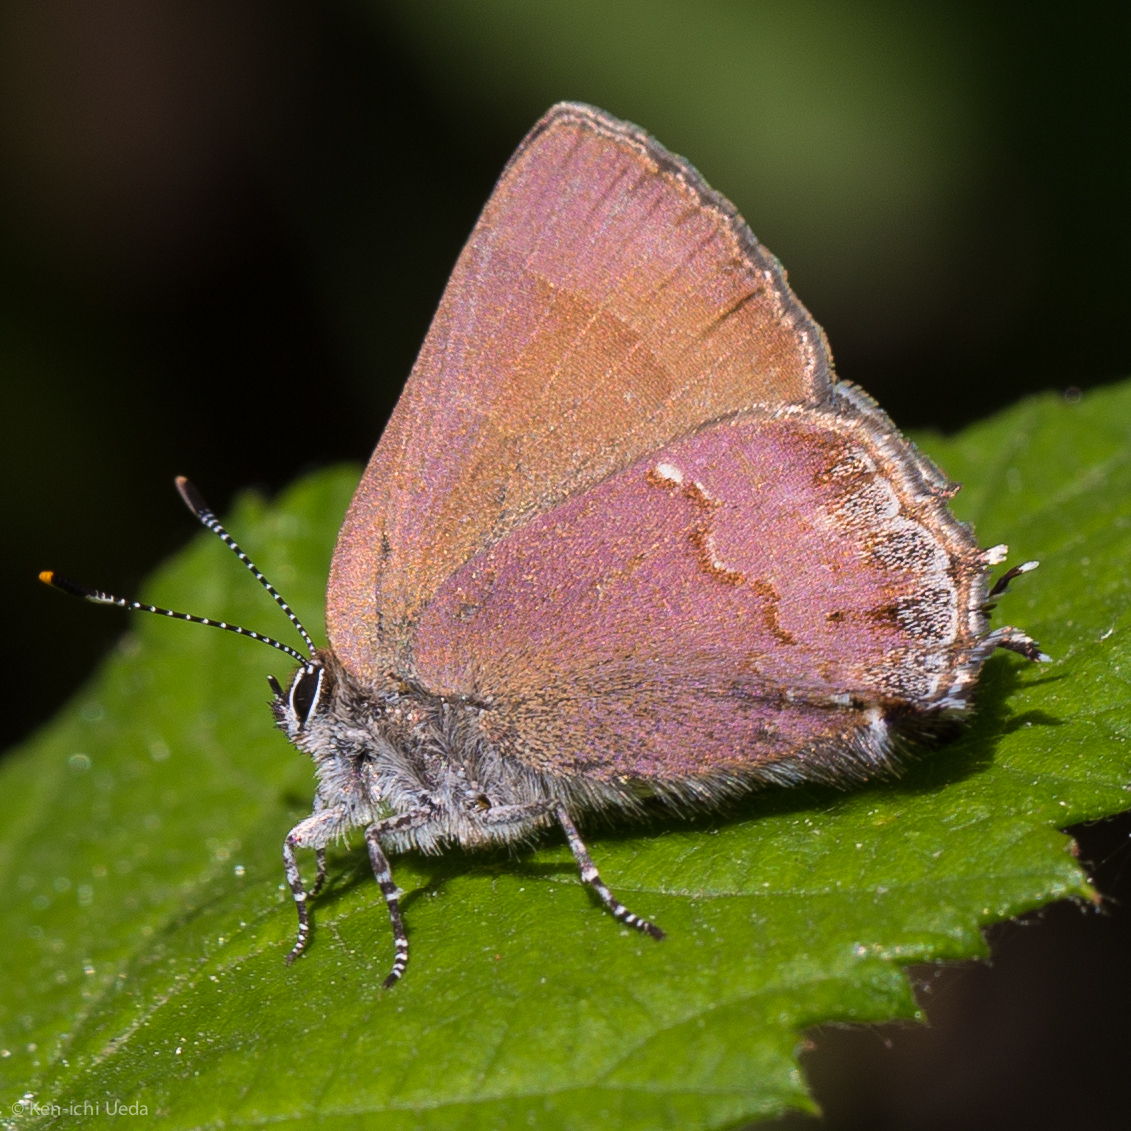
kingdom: Animalia
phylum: Arthropoda
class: Insecta
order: Lepidoptera
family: Lycaenidae
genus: Mitoura
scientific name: Mitoura nelsoni
